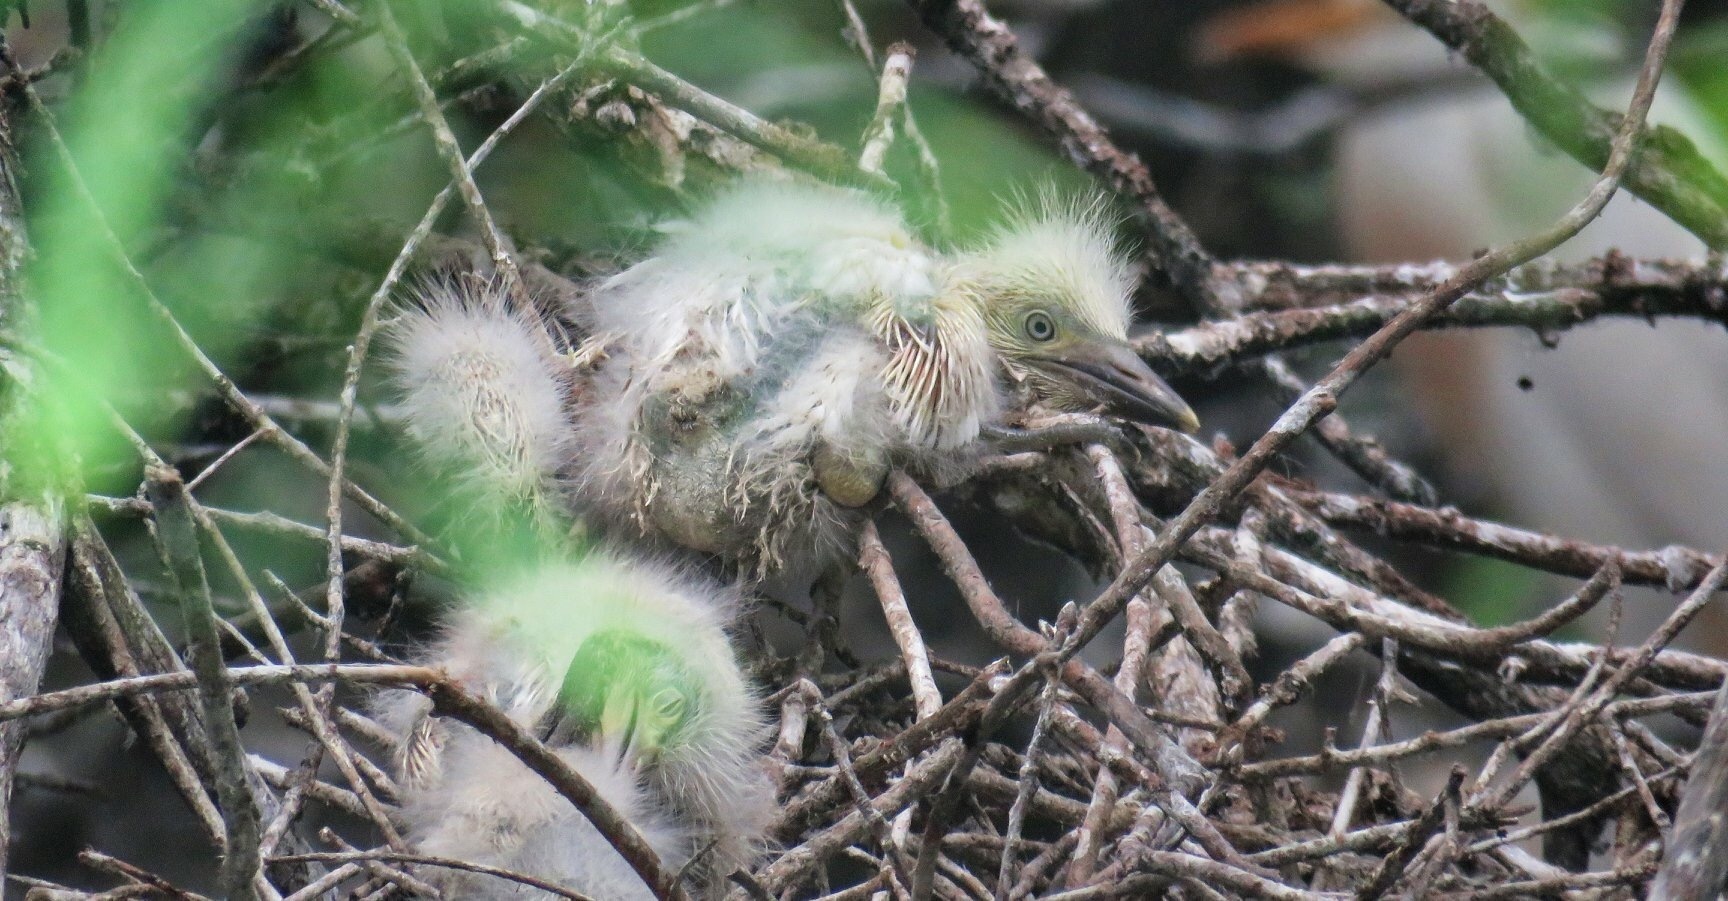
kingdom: Animalia
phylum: Chordata
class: Aves
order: Pelecaniformes
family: Ardeidae
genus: Bubulcus
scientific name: Bubulcus ibis
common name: Cattle egret
